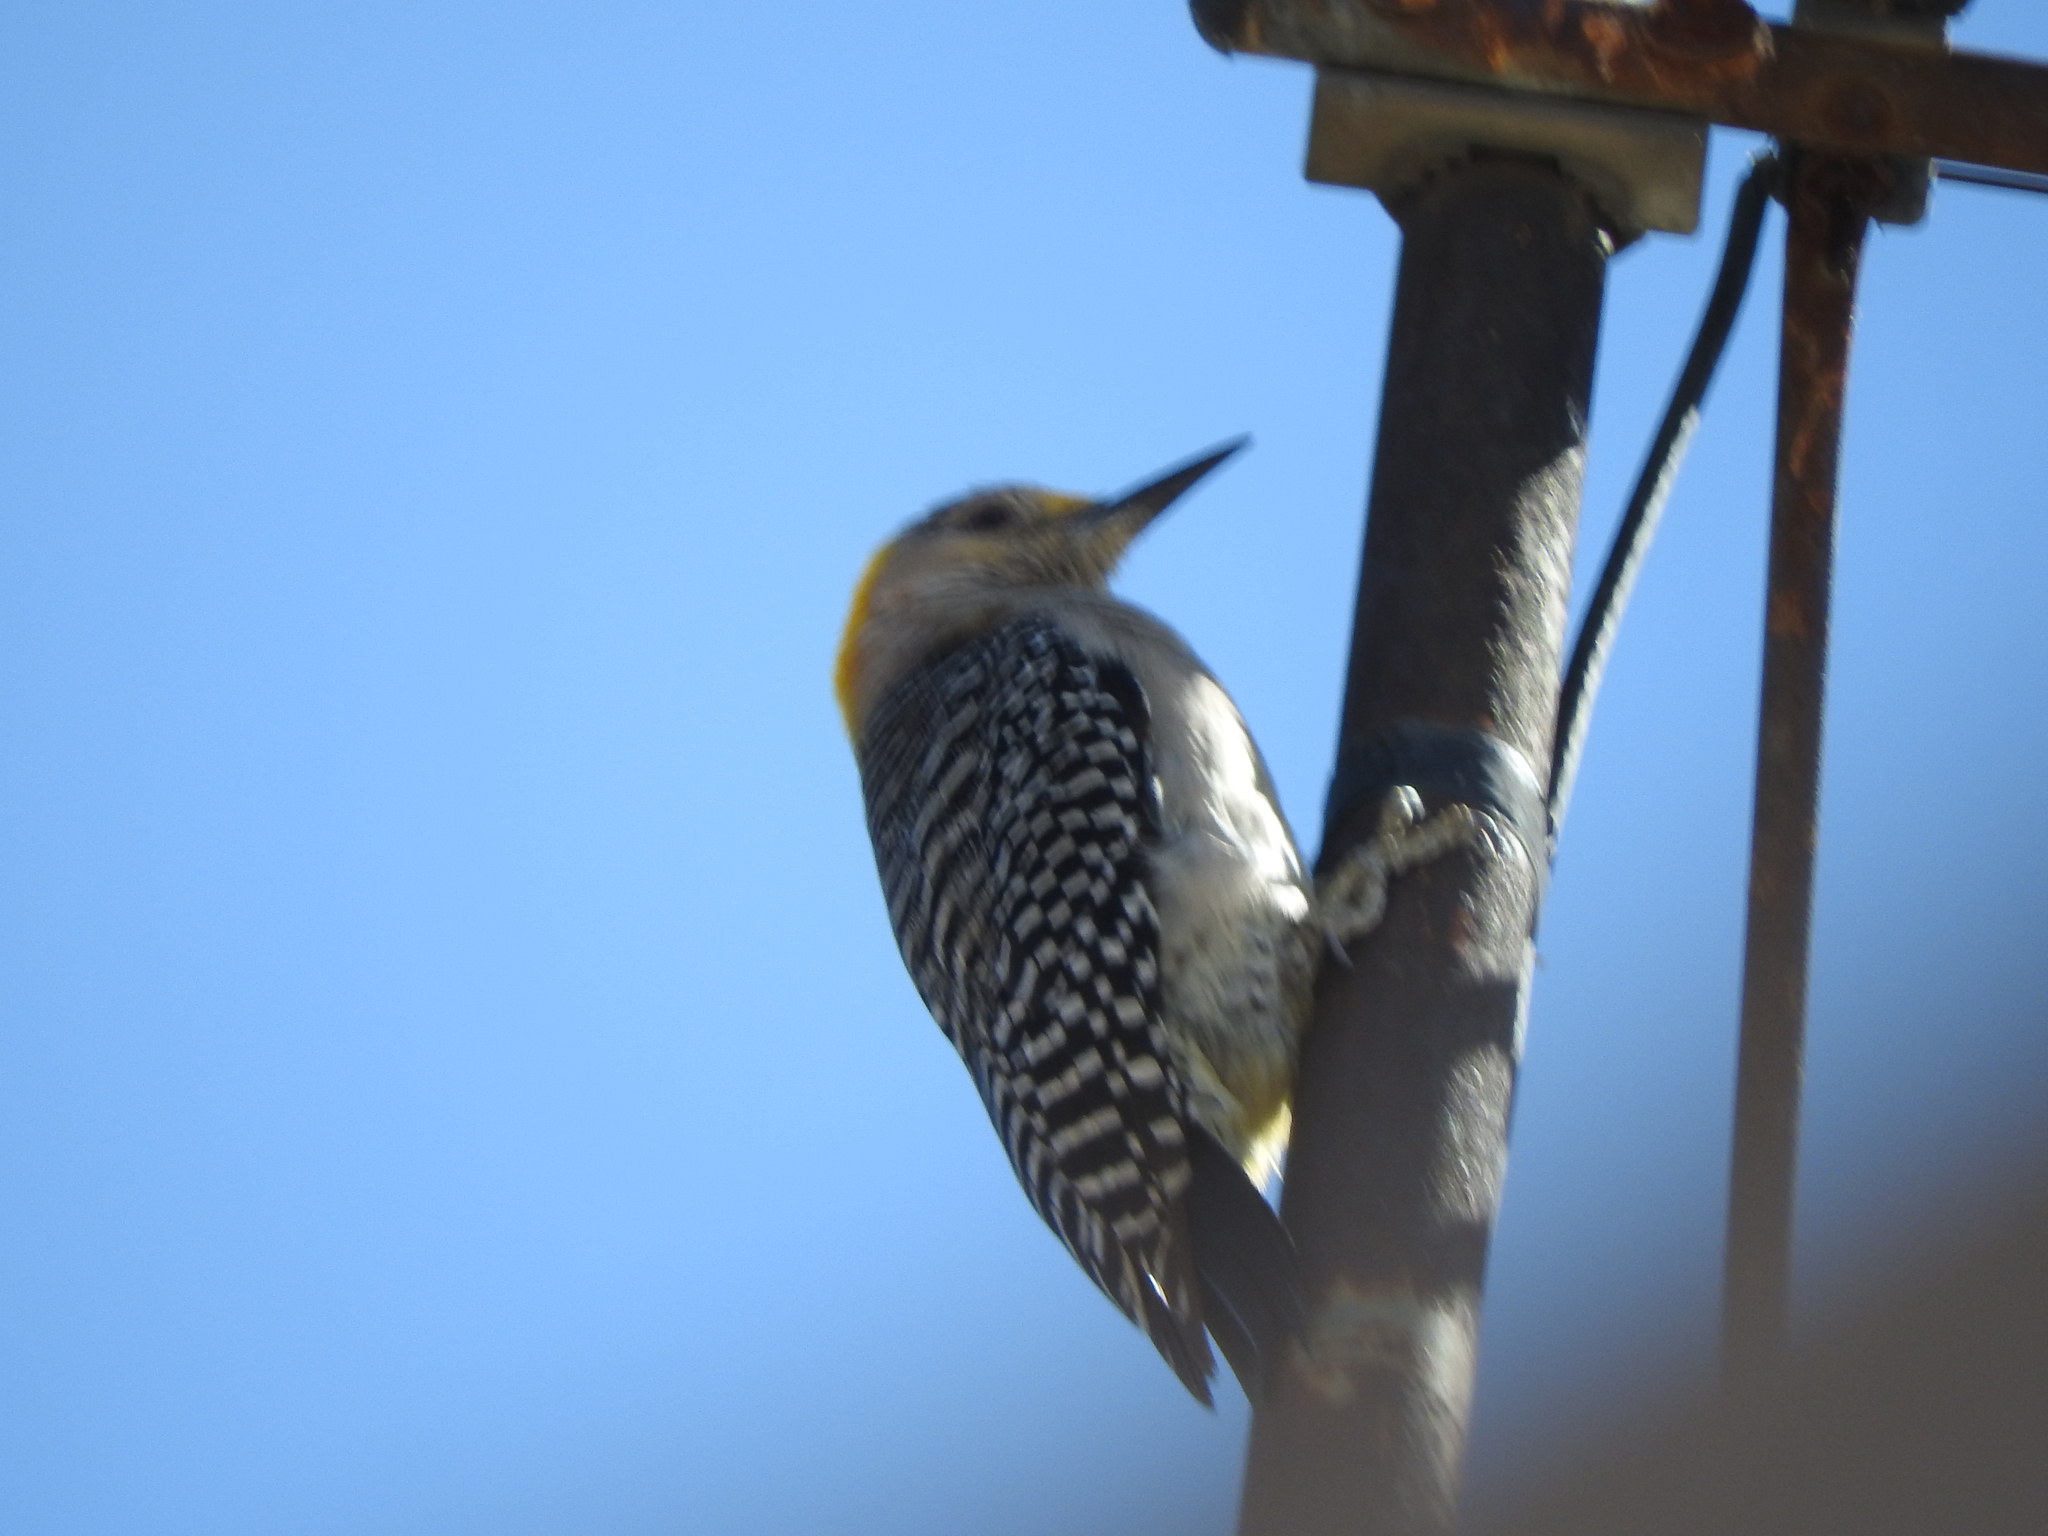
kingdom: Animalia
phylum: Chordata
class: Aves
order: Piciformes
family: Picidae
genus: Melanerpes
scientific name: Melanerpes aurifrons
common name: Golden-fronted woodpecker
